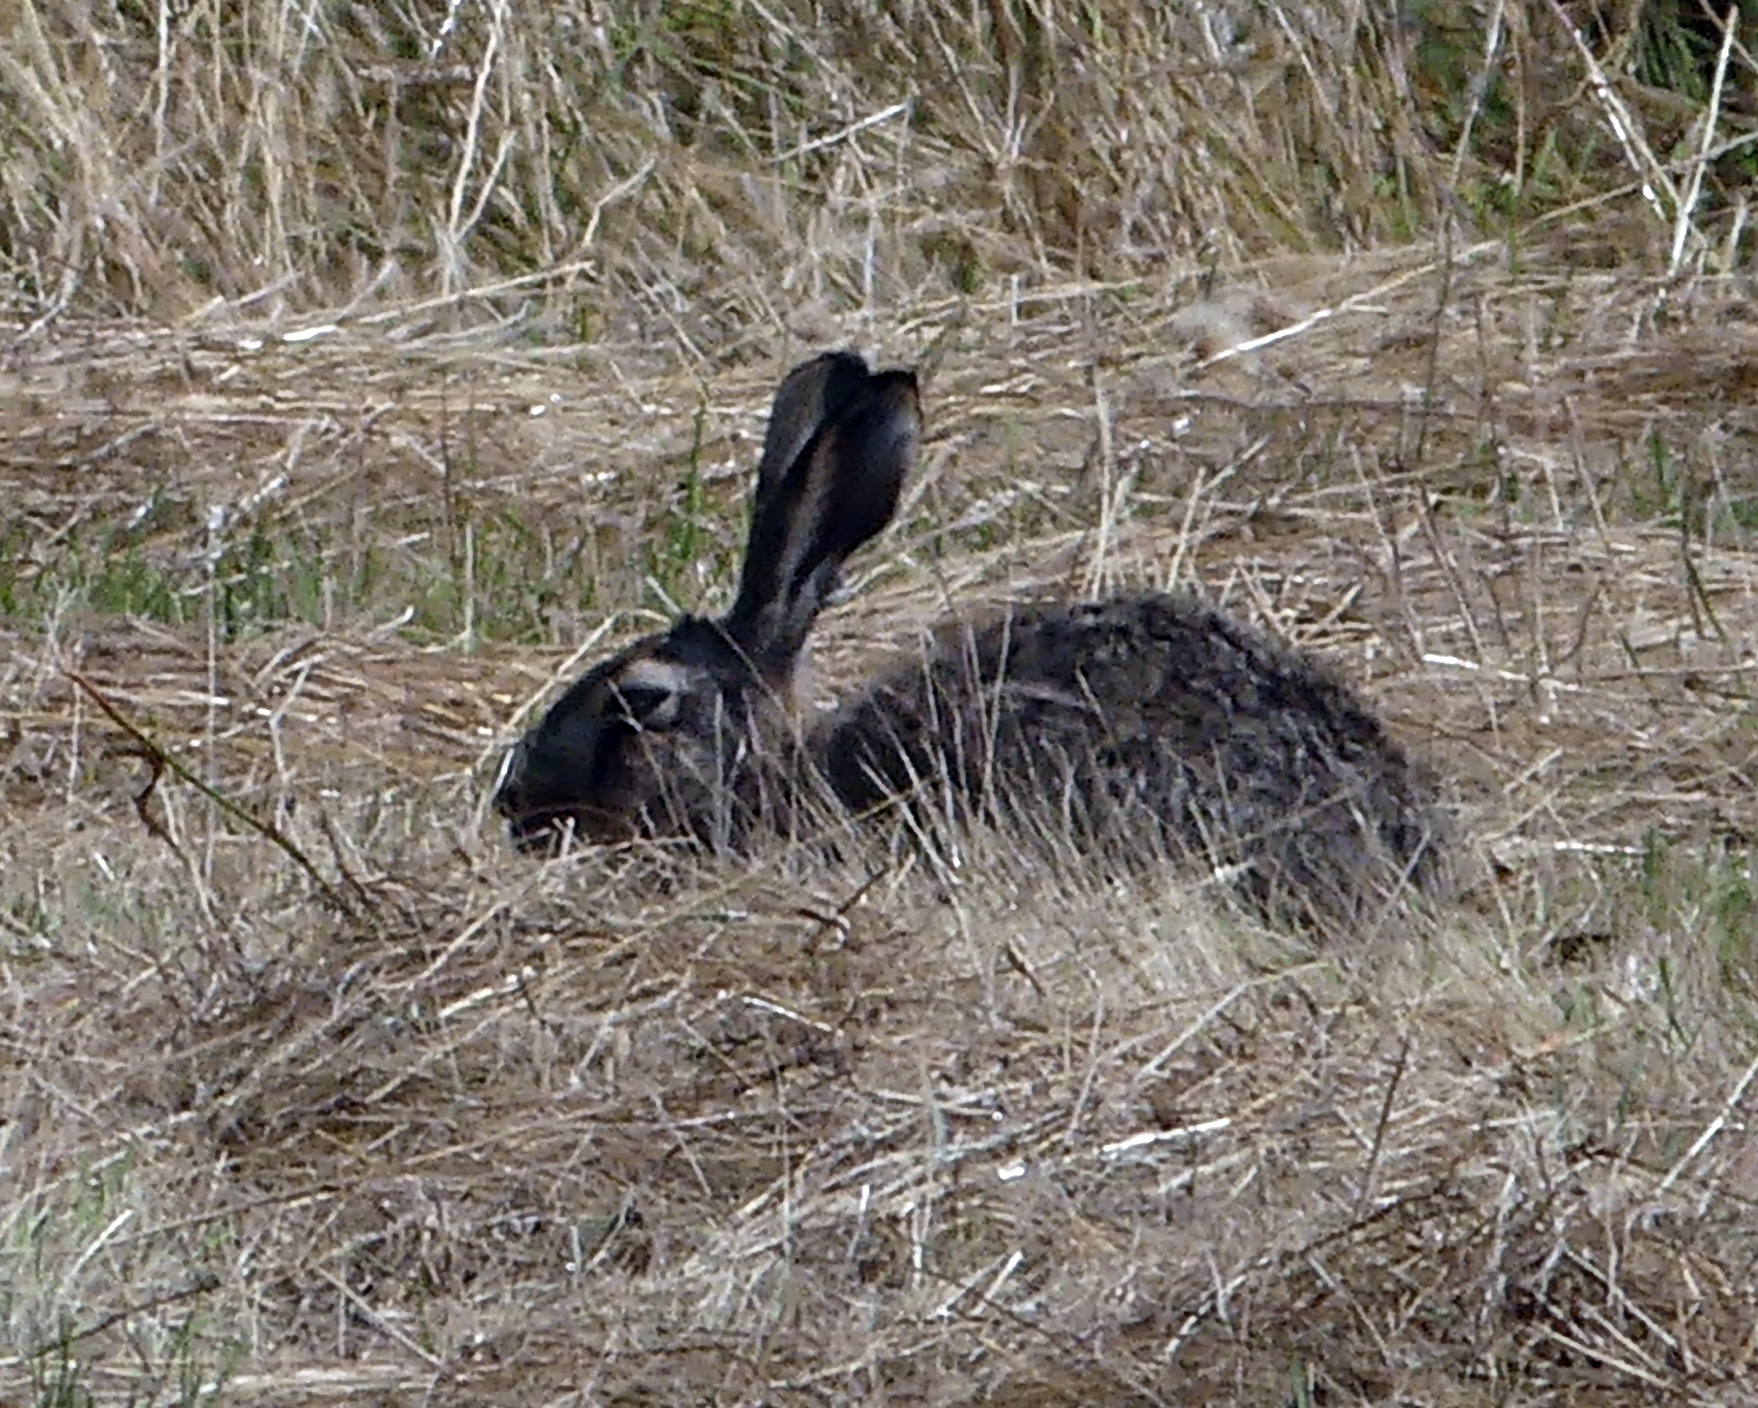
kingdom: Animalia
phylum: Chordata
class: Mammalia
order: Lagomorpha
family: Leporidae
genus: Lepus
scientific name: Lepus europaeus
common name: European hare
